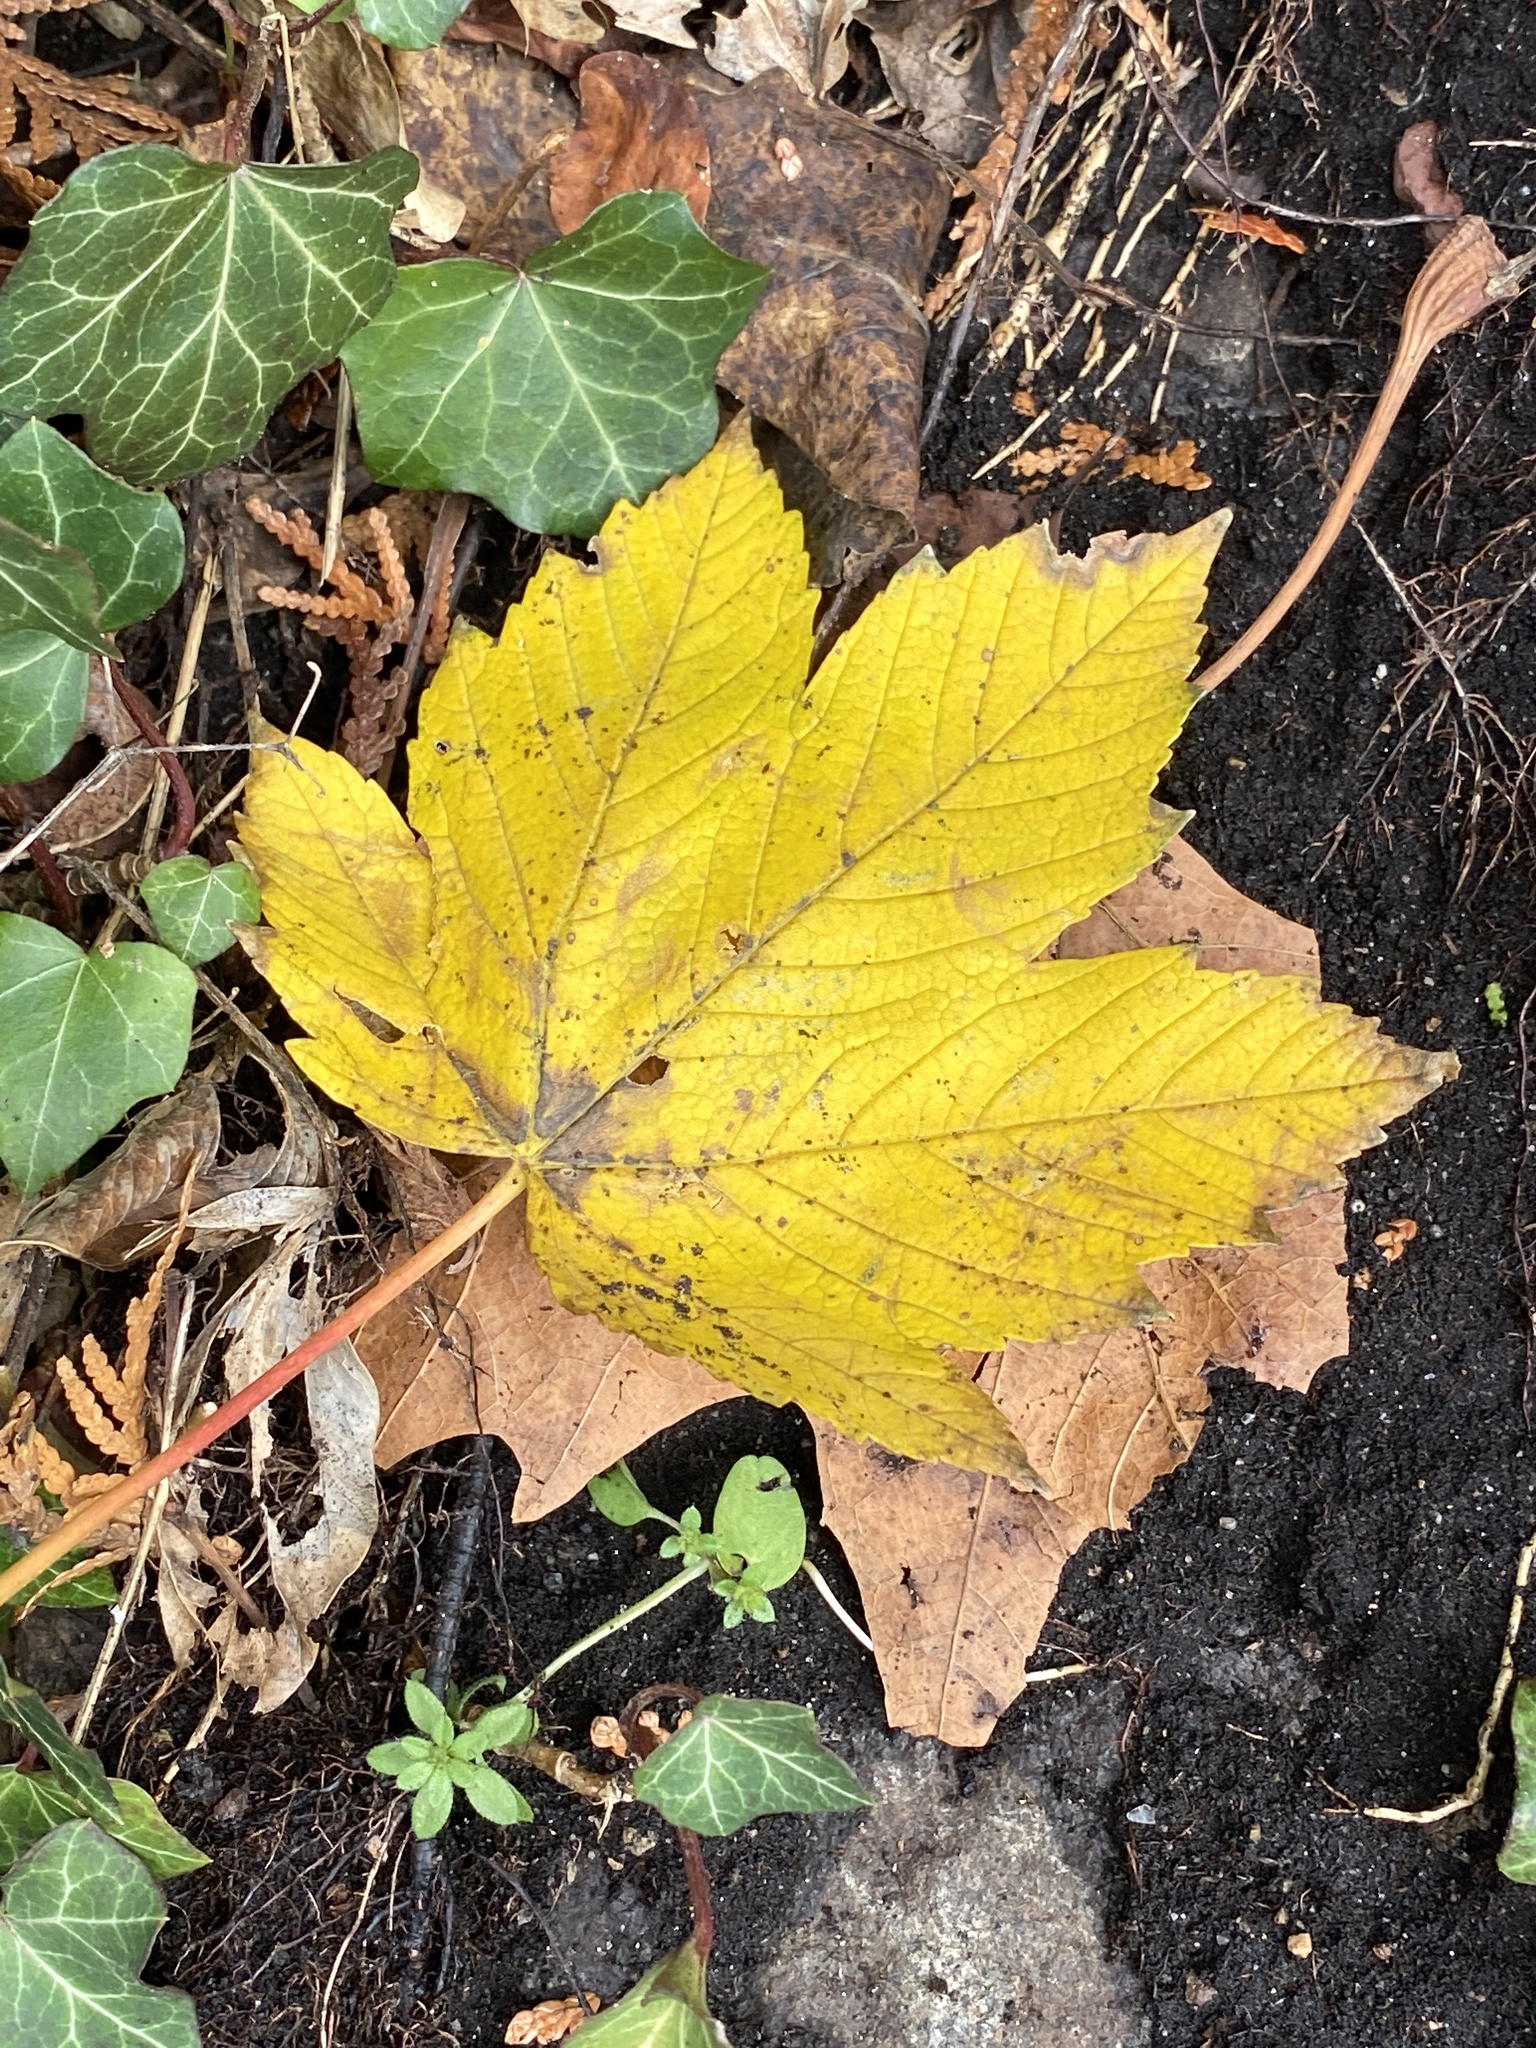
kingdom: Plantae
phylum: Tracheophyta
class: Magnoliopsida
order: Sapindales
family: Sapindaceae
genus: Acer
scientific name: Acer pseudoplatanus
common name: Sycamore
